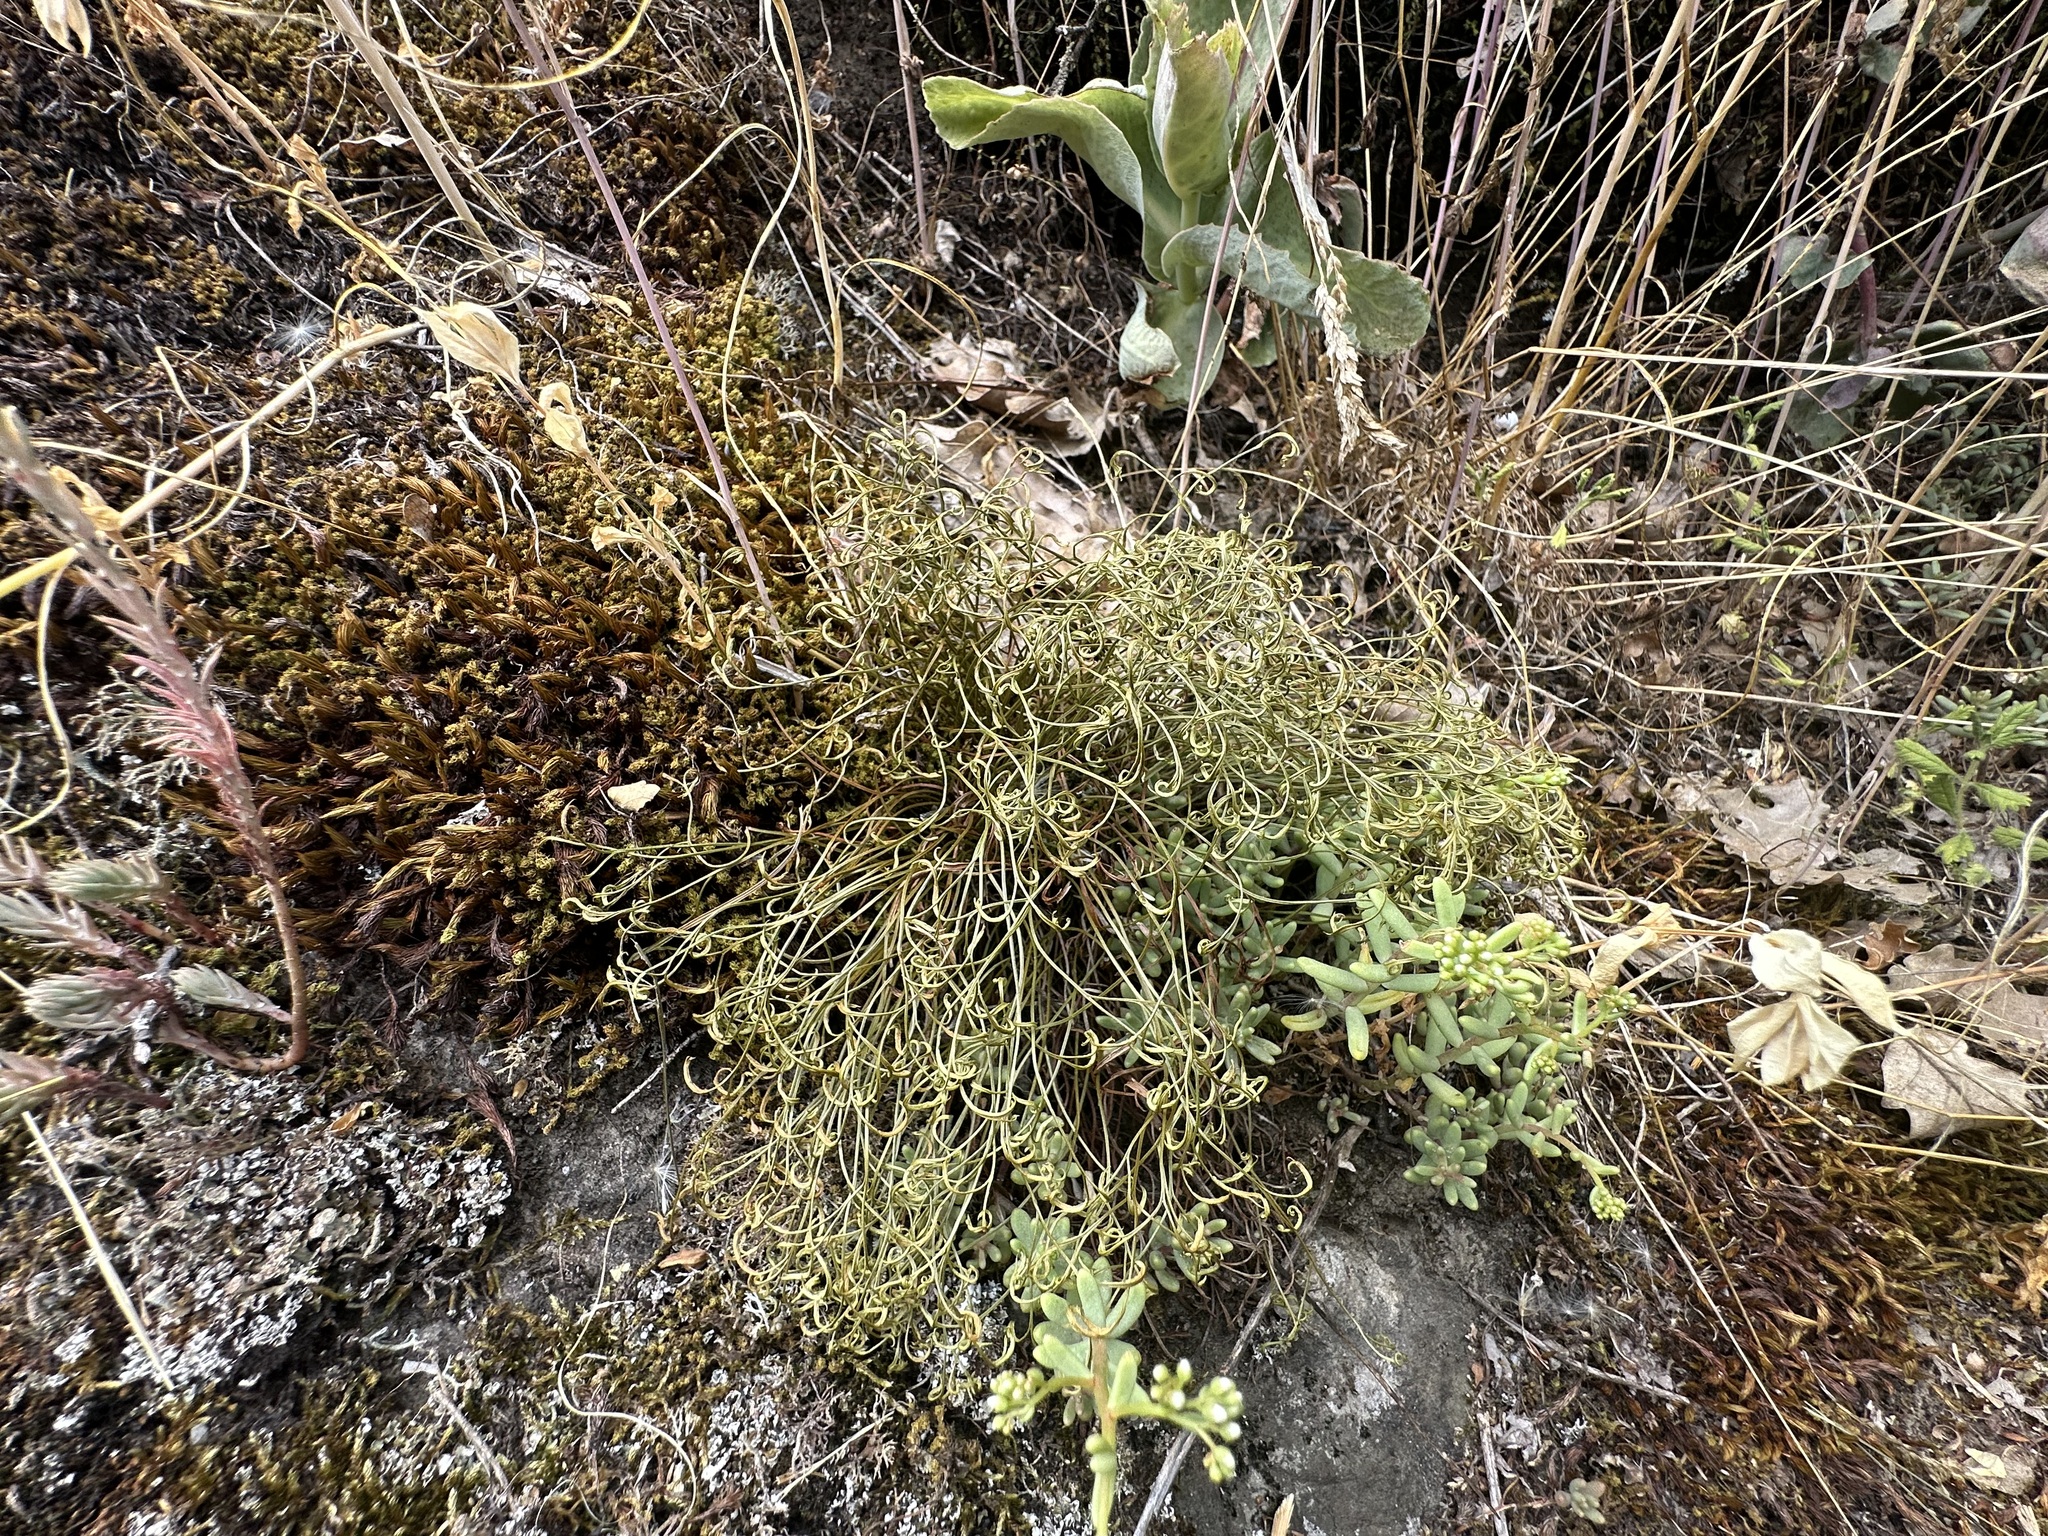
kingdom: Plantae
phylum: Tracheophyta
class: Polypodiopsida
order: Polypodiales
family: Aspleniaceae
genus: Asplenium
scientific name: Asplenium septentrionale
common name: Forked spleenwort
